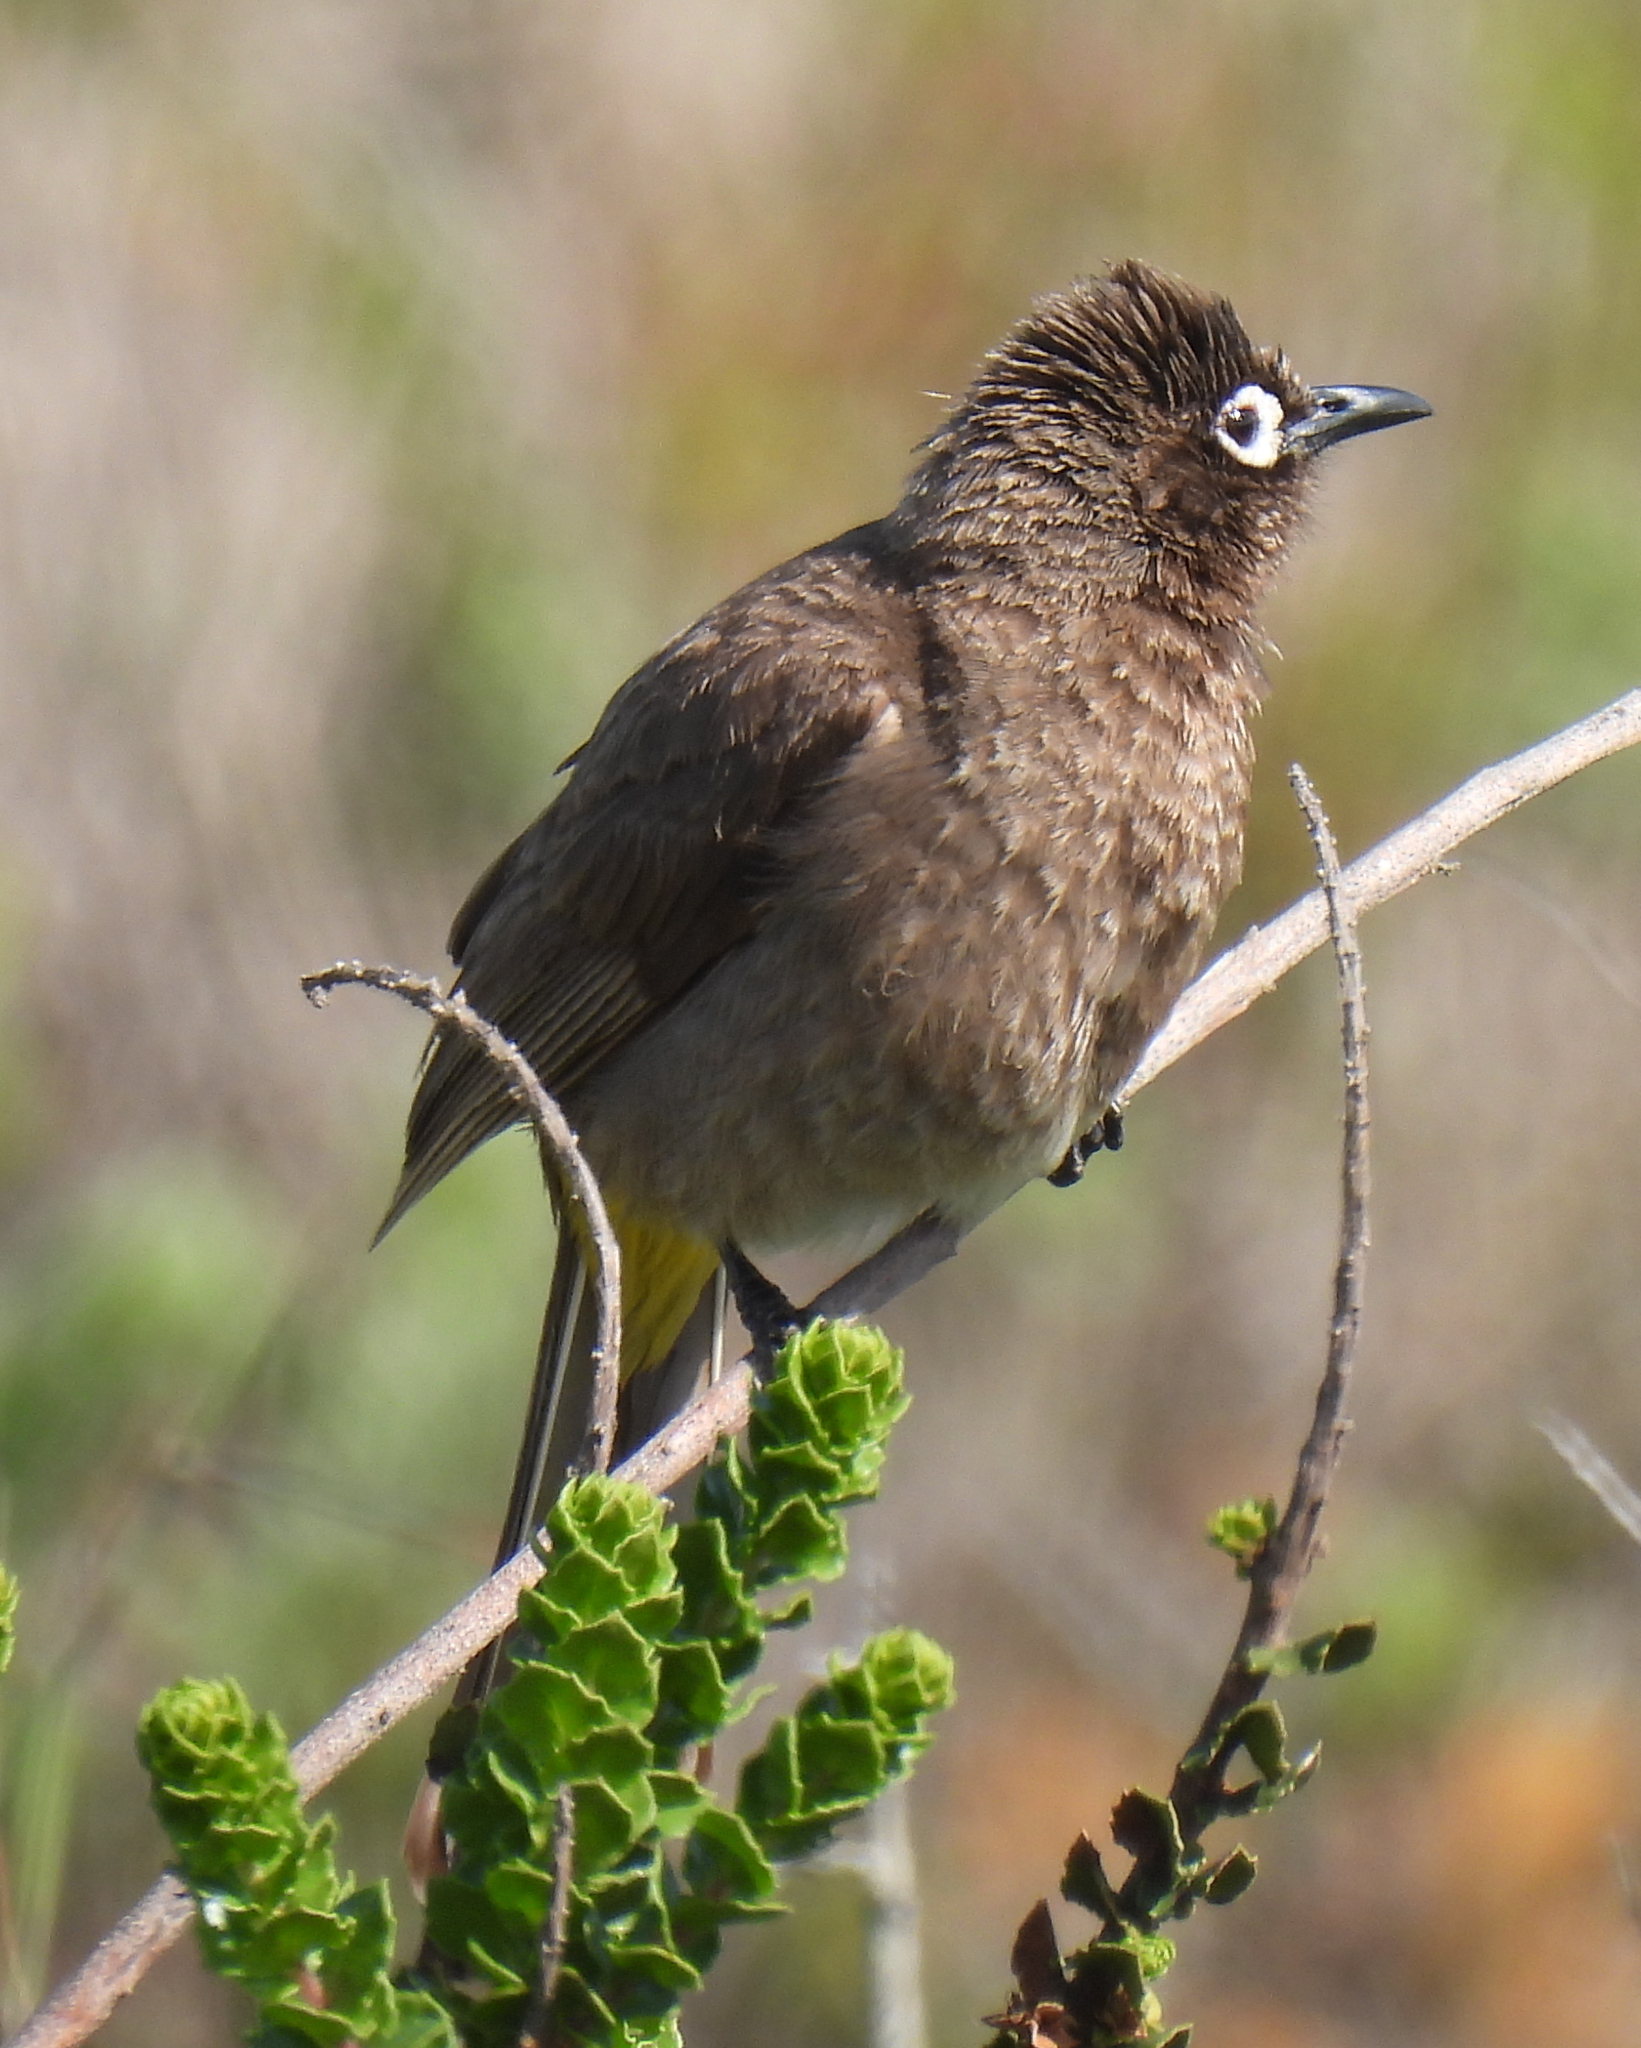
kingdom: Animalia
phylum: Chordata
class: Aves
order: Passeriformes
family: Pycnonotidae
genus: Pycnonotus
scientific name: Pycnonotus capensis
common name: Cape bulbul
